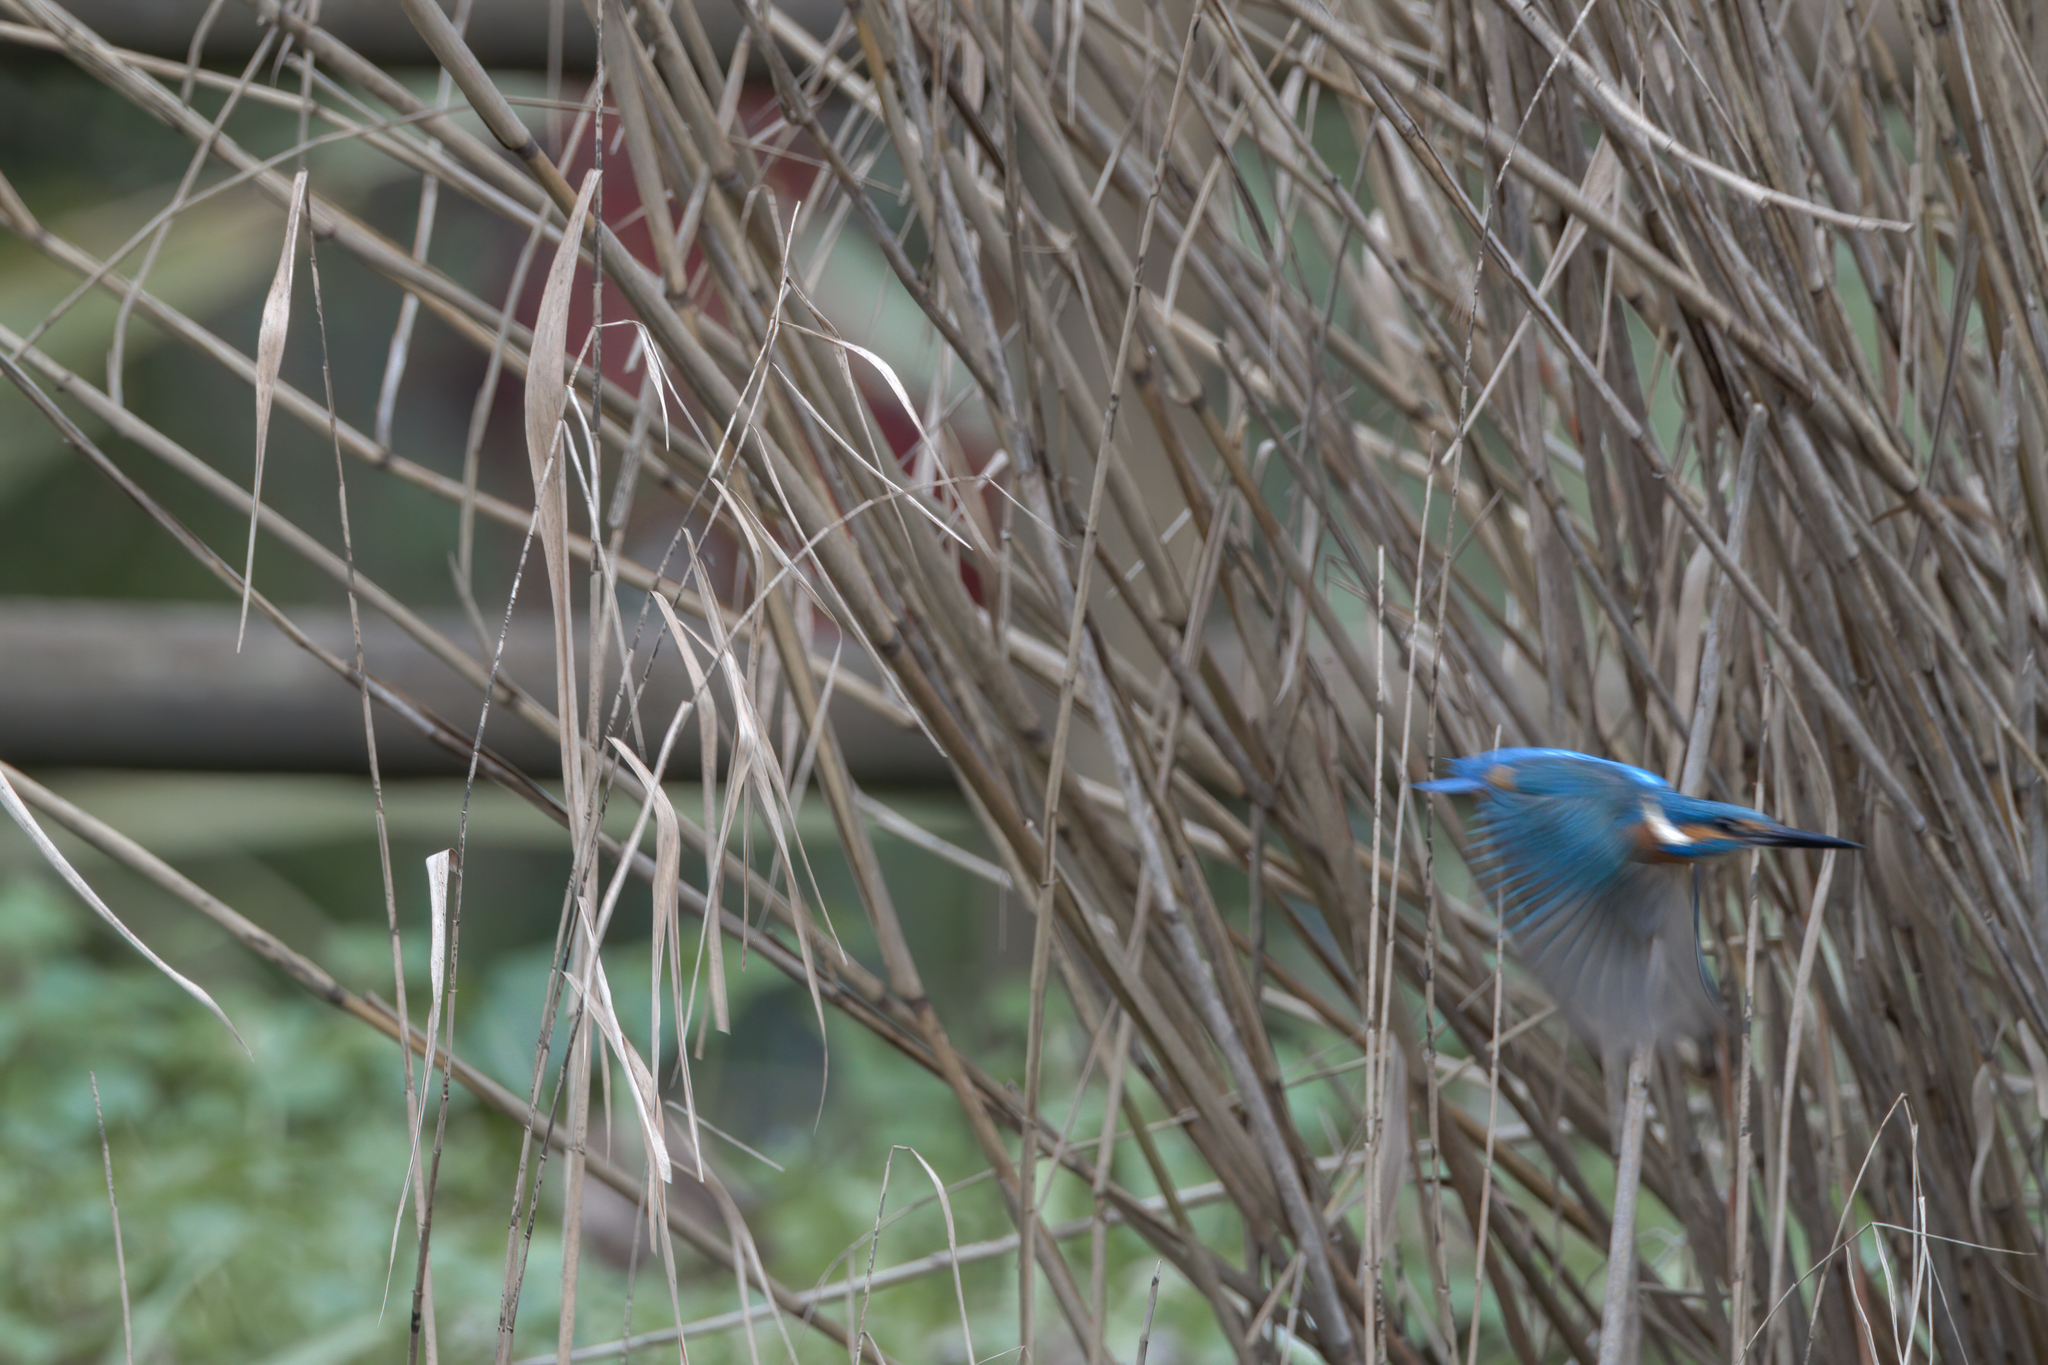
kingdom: Animalia
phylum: Chordata
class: Aves
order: Coraciiformes
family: Alcedinidae
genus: Alcedo
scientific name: Alcedo atthis
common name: Common kingfisher
